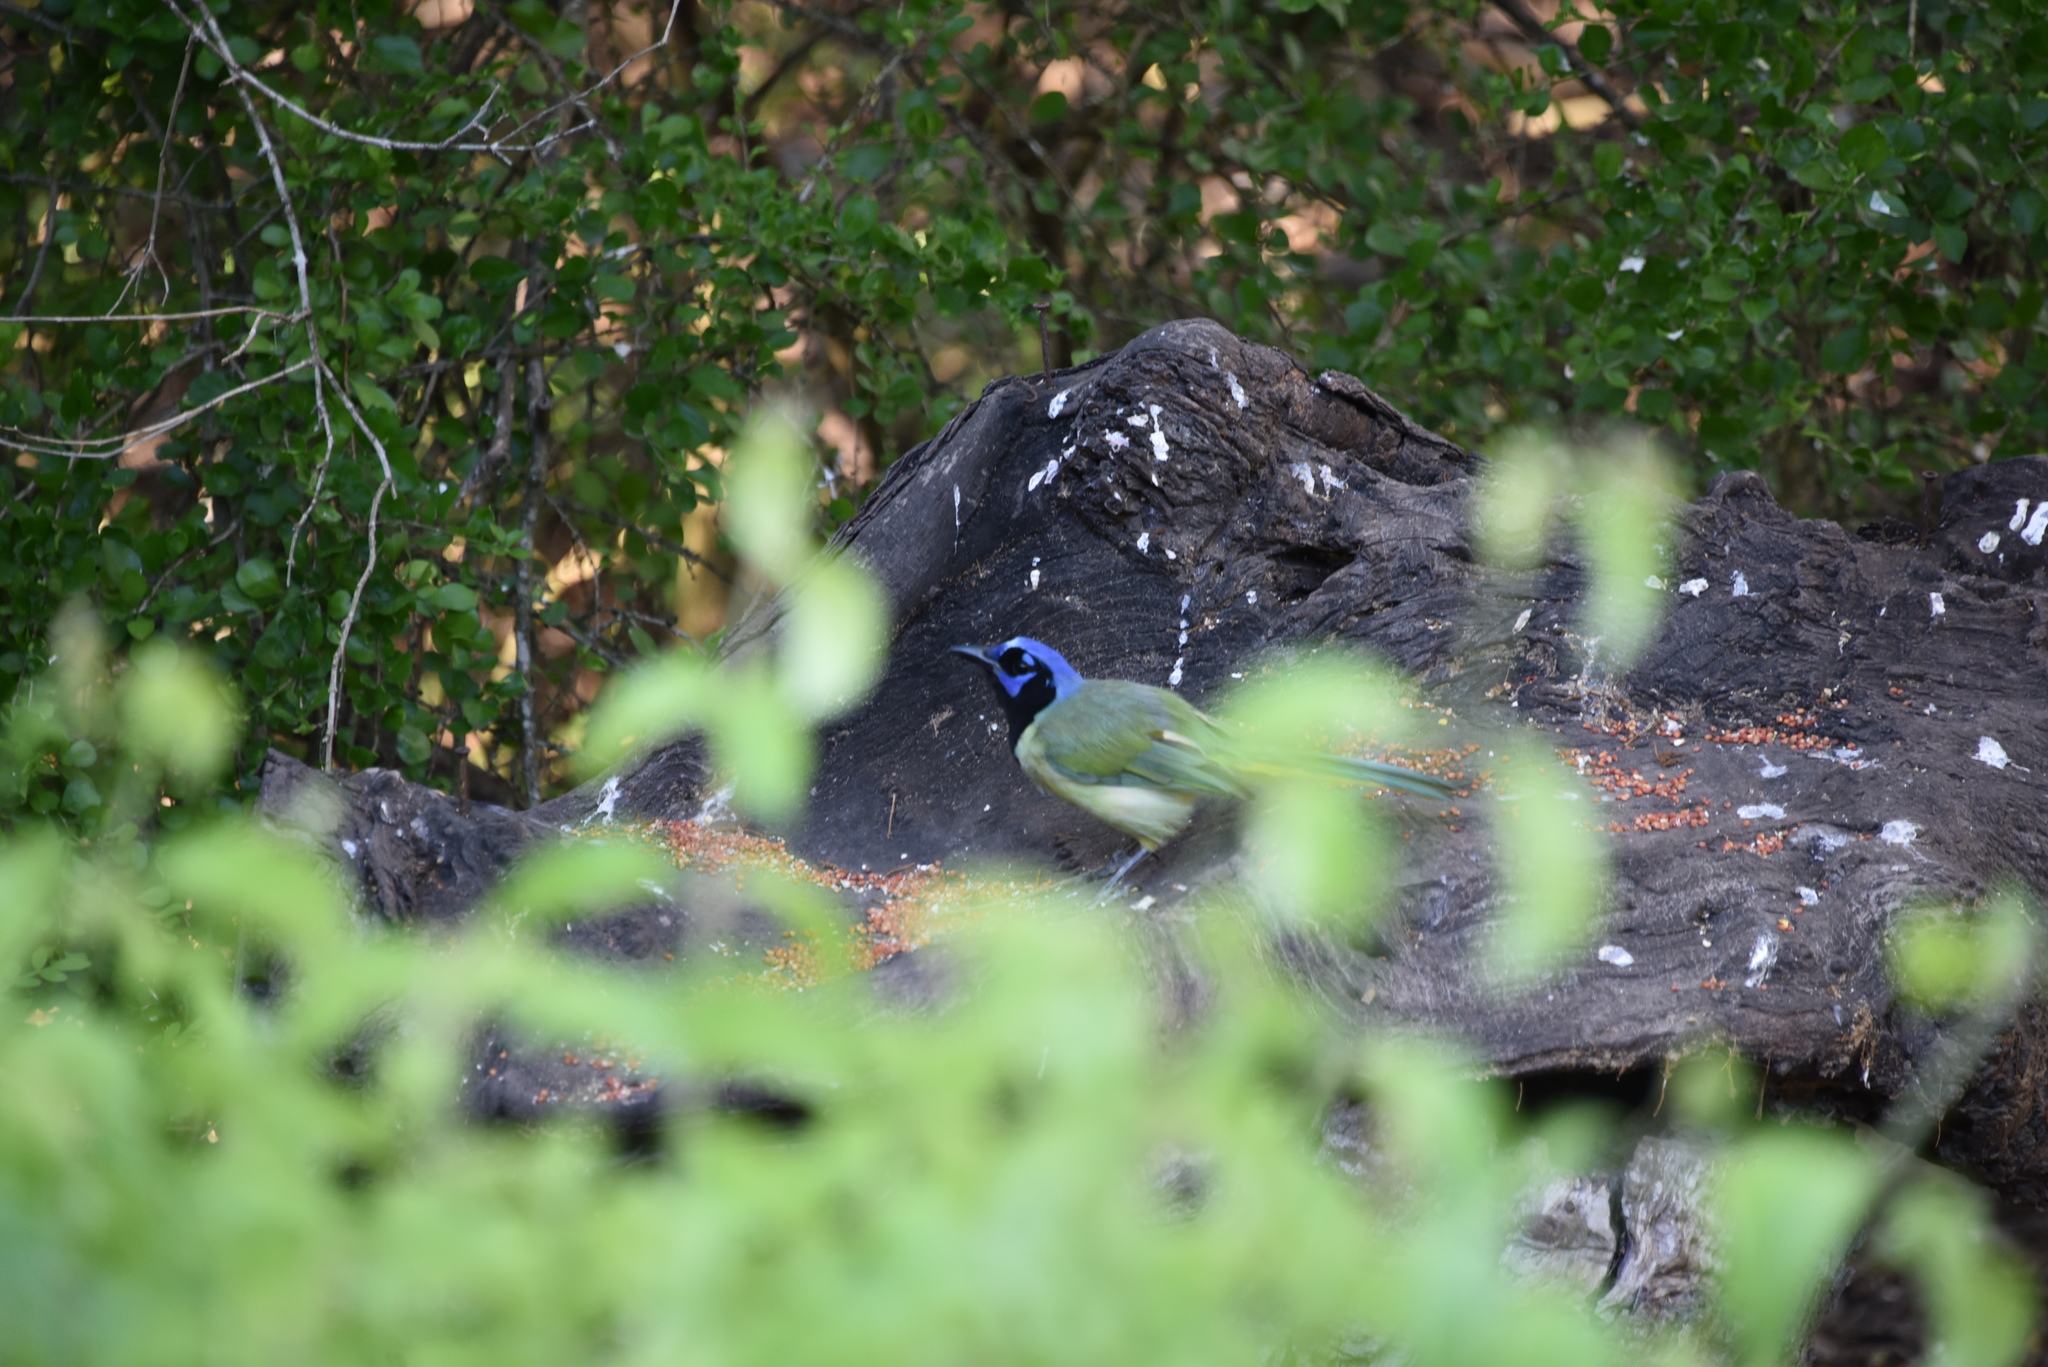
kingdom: Animalia
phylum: Chordata
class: Aves
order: Passeriformes
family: Corvidae
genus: Cyanocorax
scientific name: Cyanocorax yncas
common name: Green jay
